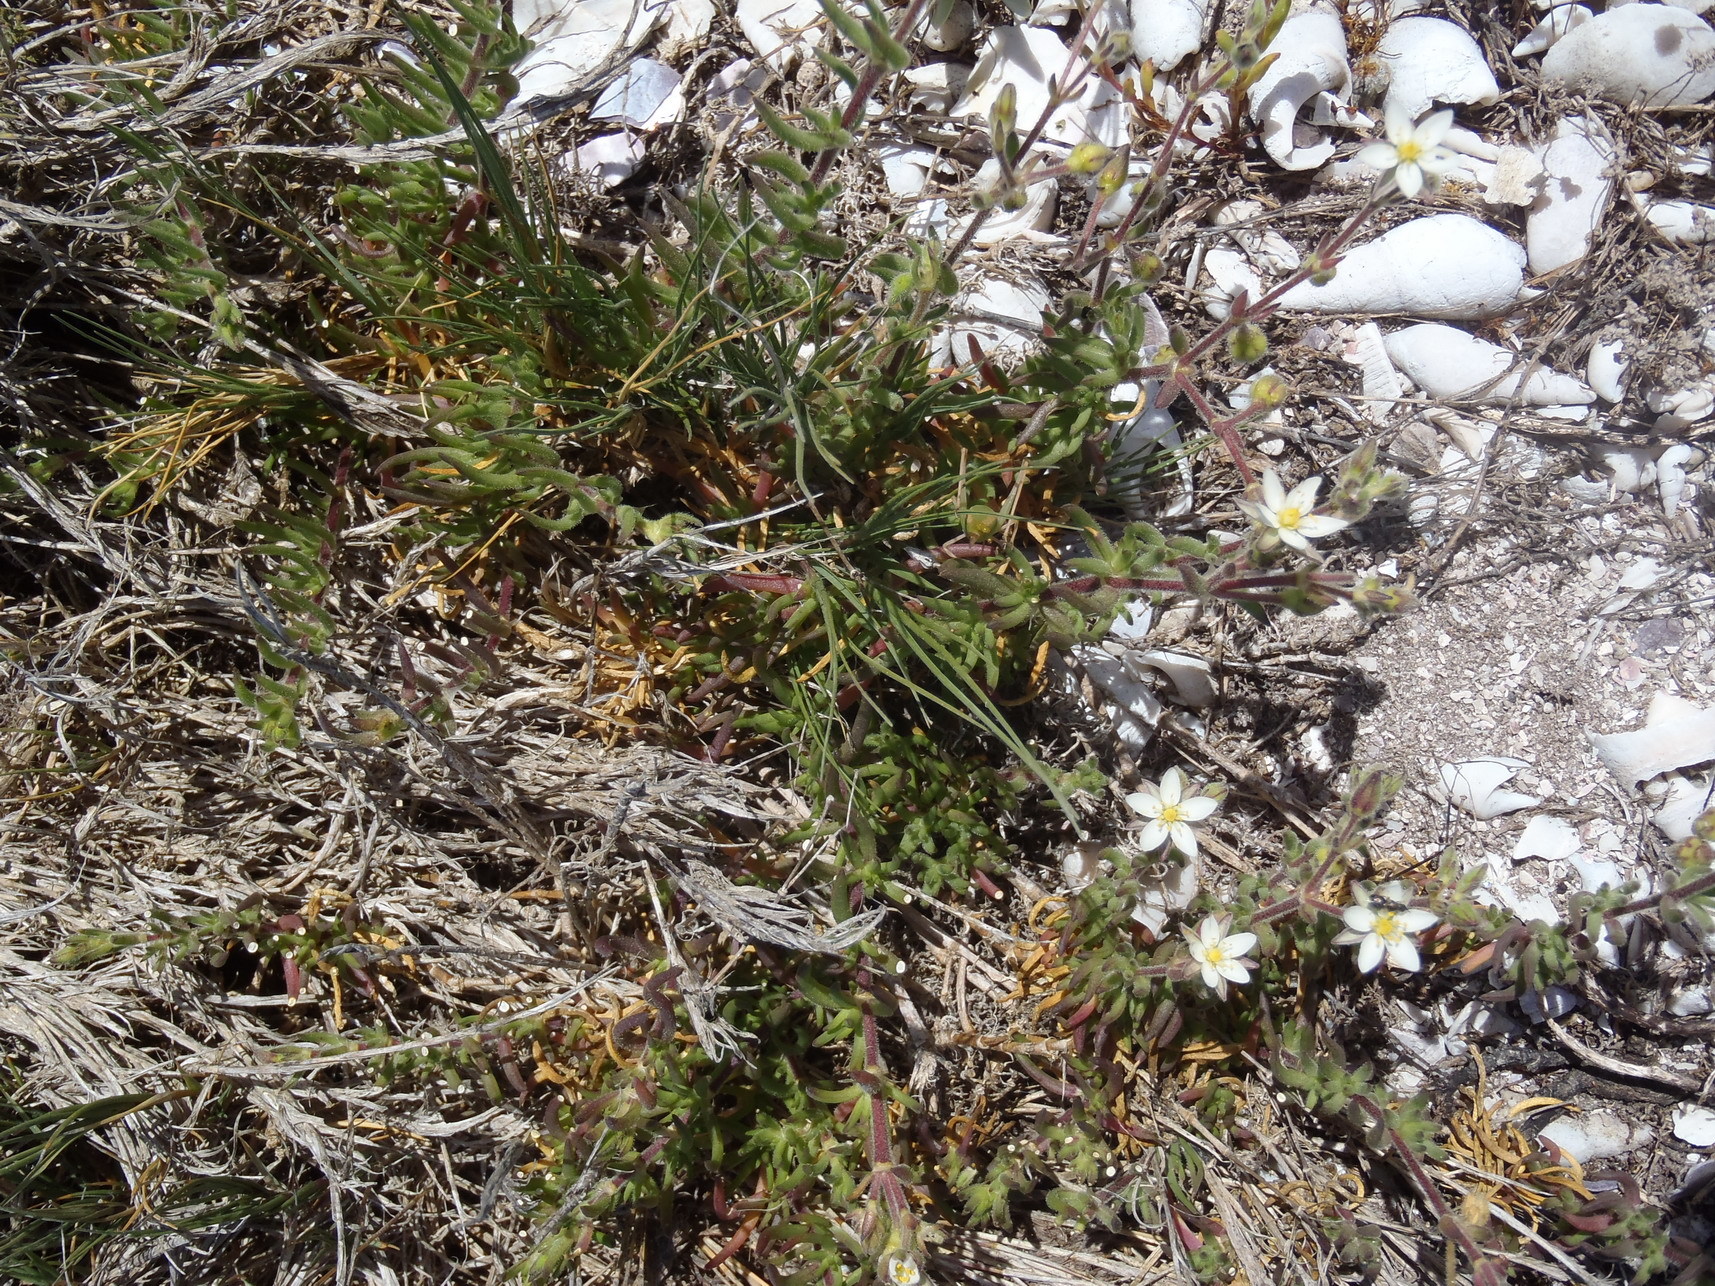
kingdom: Plantae
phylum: Tracheophyta
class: Magnoliopsida
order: Caryophyllales
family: Caryophyllaceae
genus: Spergularia
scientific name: Spergularia media
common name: Greater sea-spurrey
